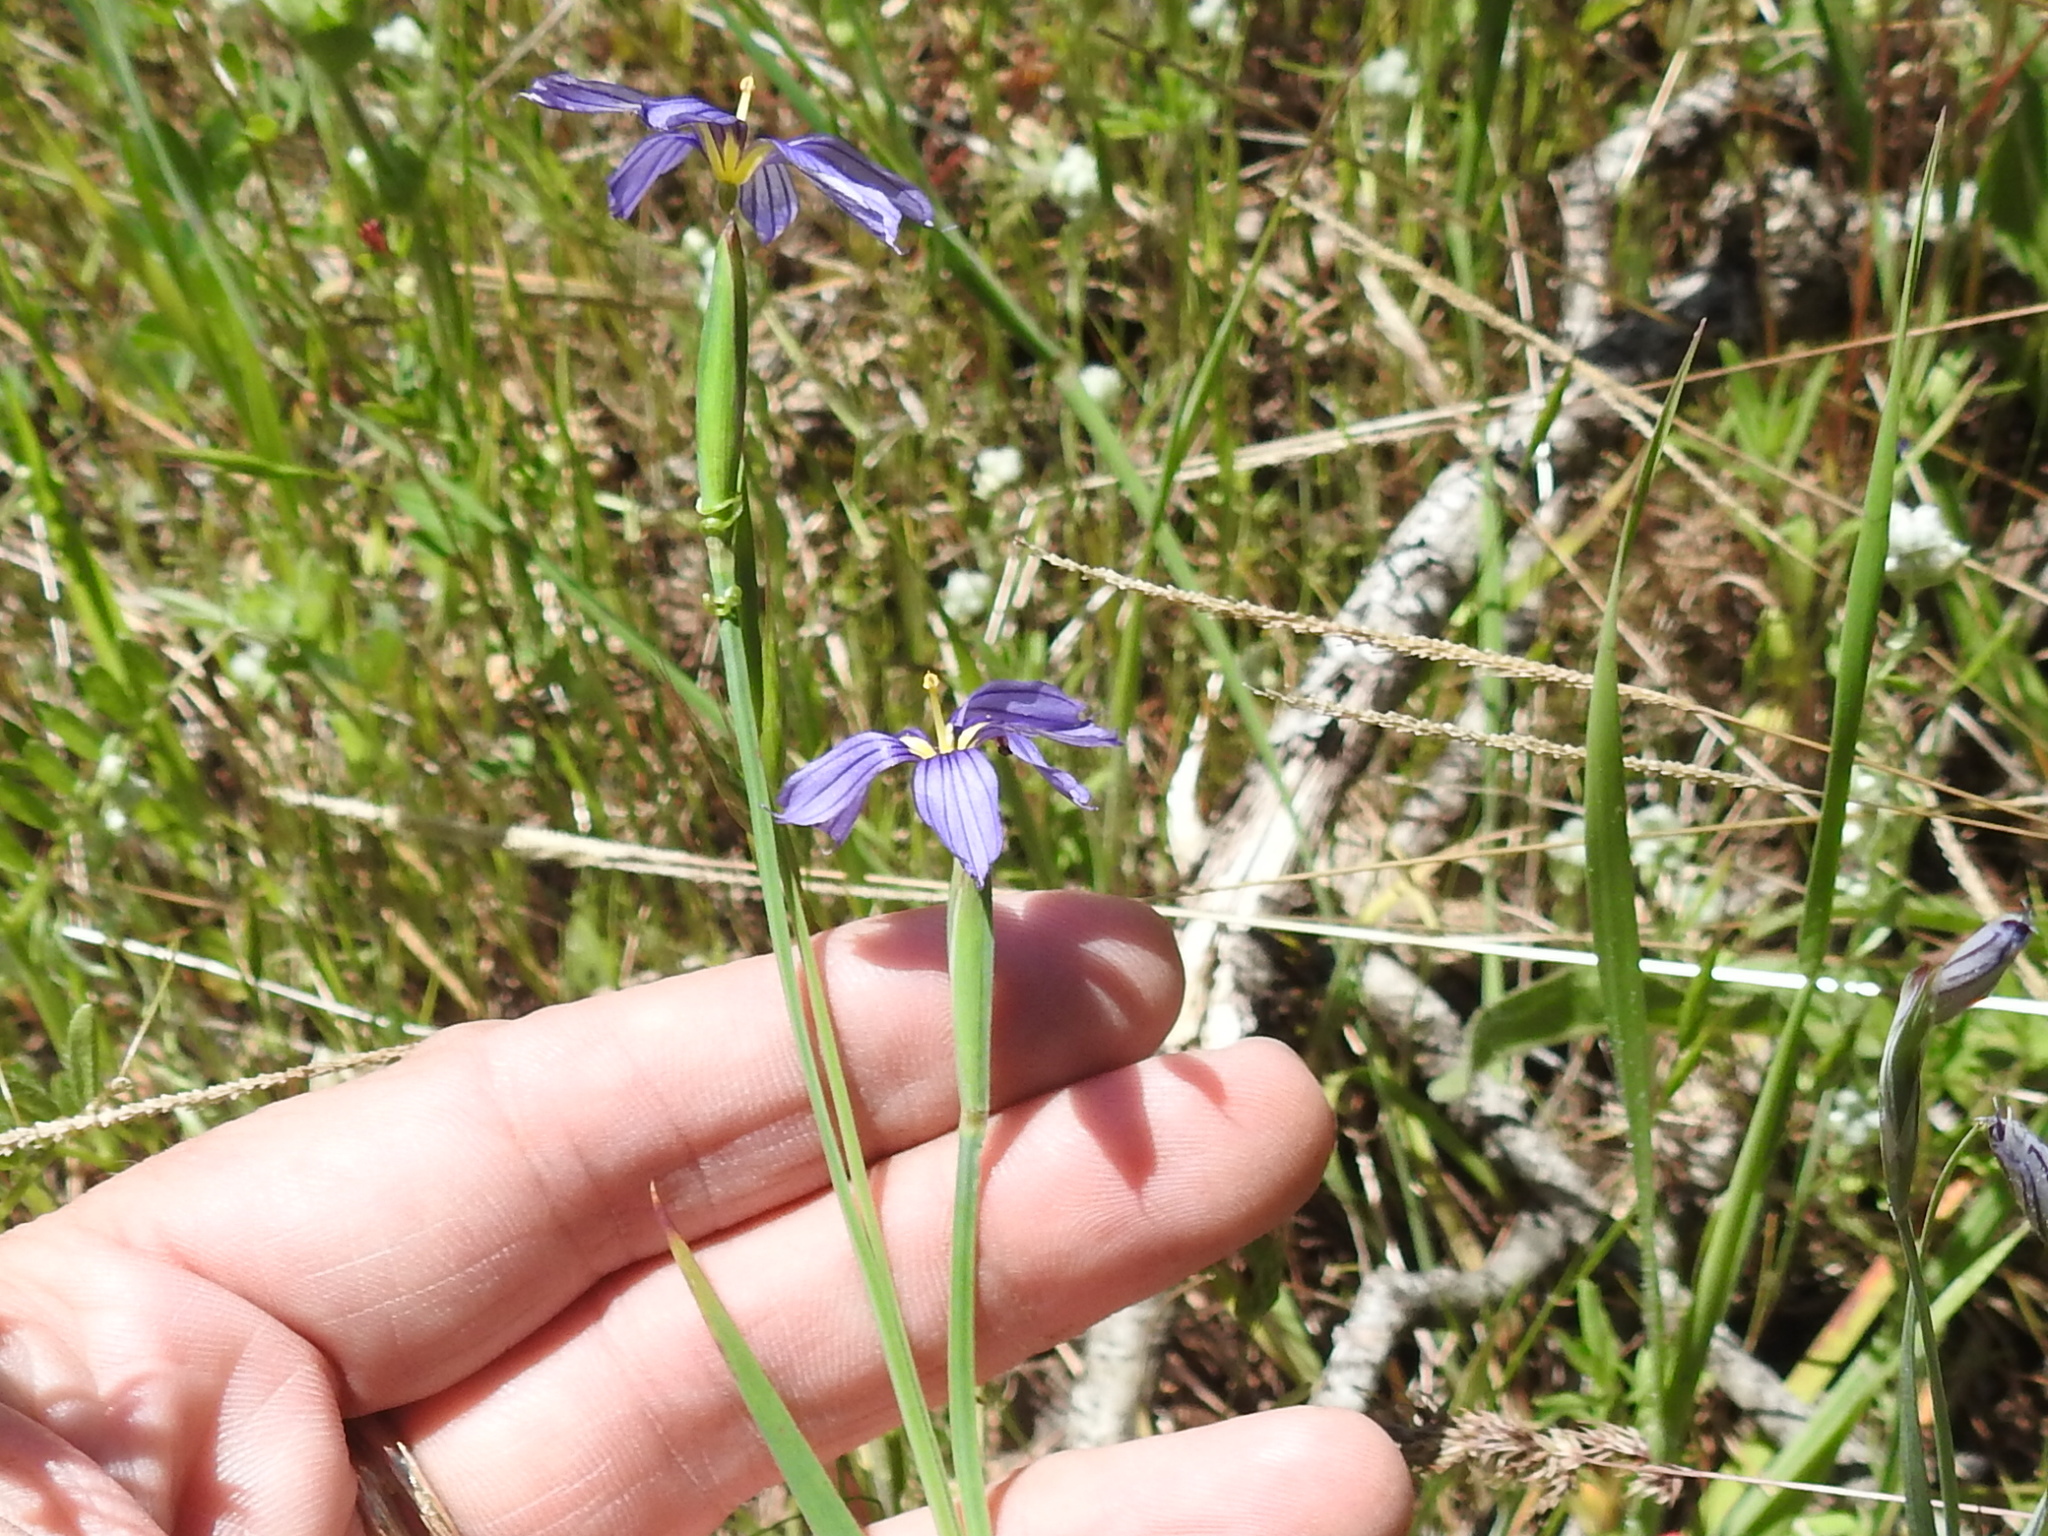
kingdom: Plantae
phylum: Tracheophyta
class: Liliopsida
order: Asparagales
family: Iridaceae
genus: Sisyrinchium
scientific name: Sisyrinchium bellum
